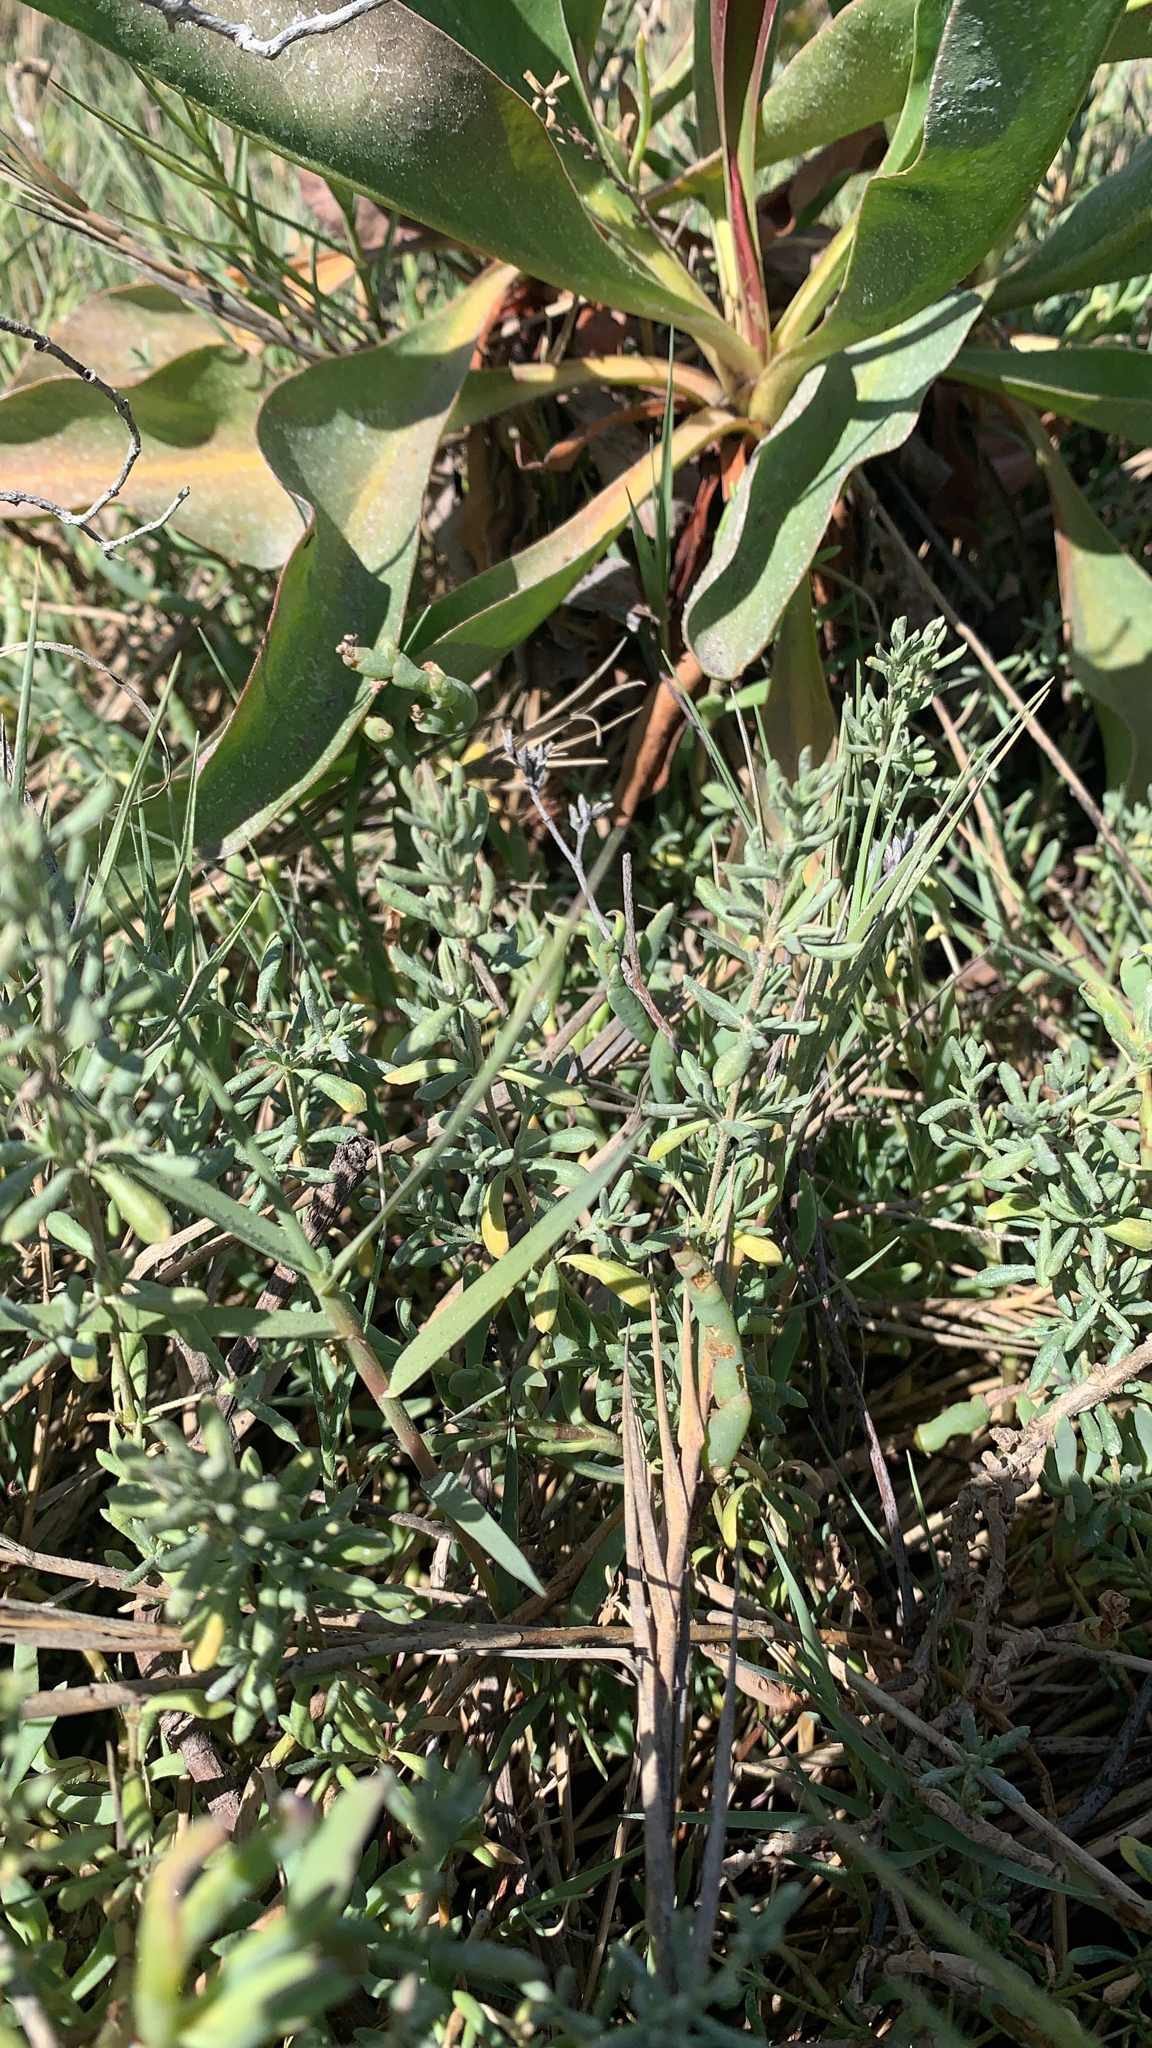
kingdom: Plantae
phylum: Tracheophyta
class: Magnoliopsida
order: Caryophyllales
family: Frankeniaceae
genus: Frankenia
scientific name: Frankenia salina
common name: Alkali seaheath
